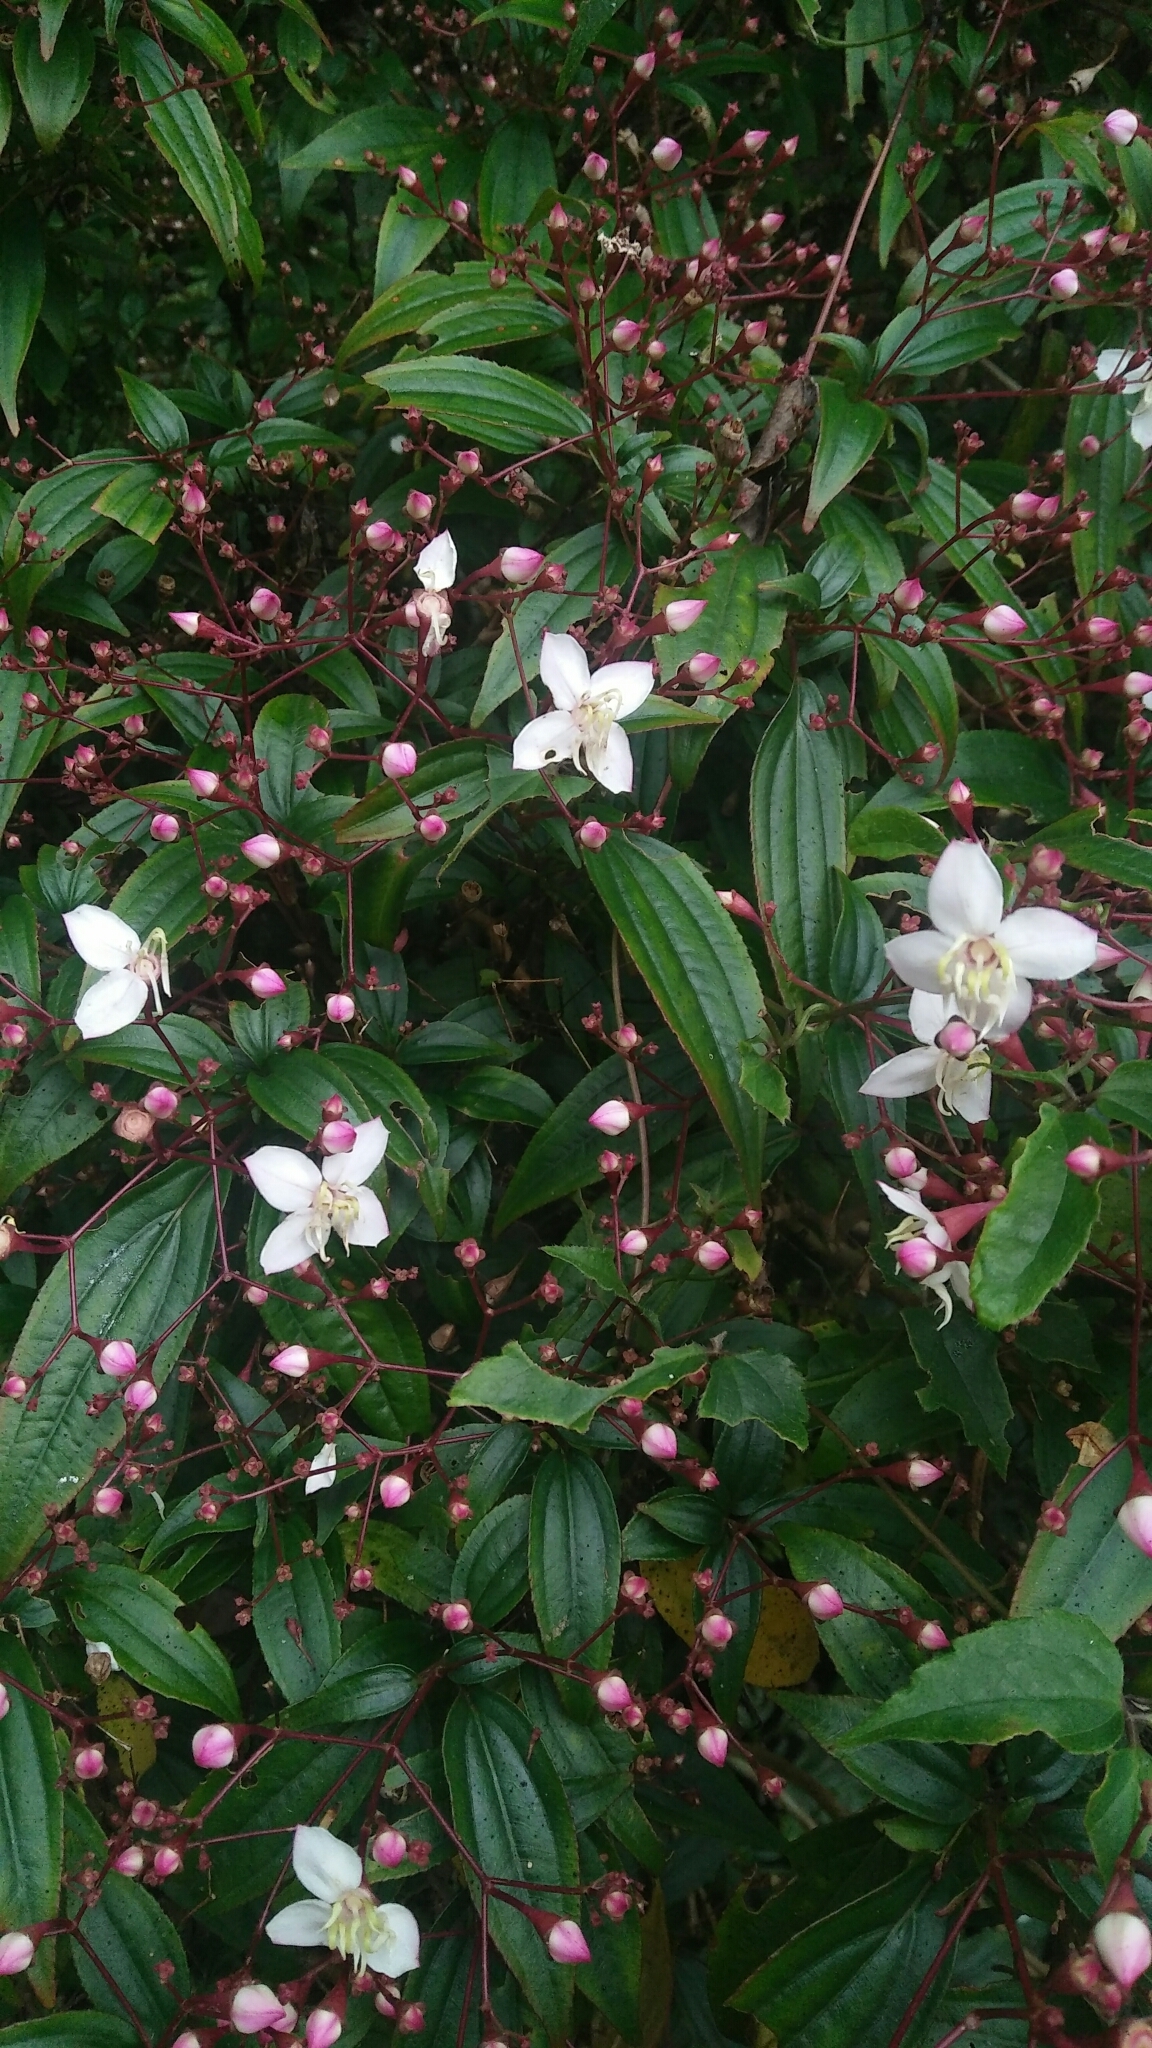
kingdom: Plantae
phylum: Tracheophyta
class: Magnoliopsida
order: Myrtales
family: Melastomataceae
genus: Bredia
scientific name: Bredia oldhamii
